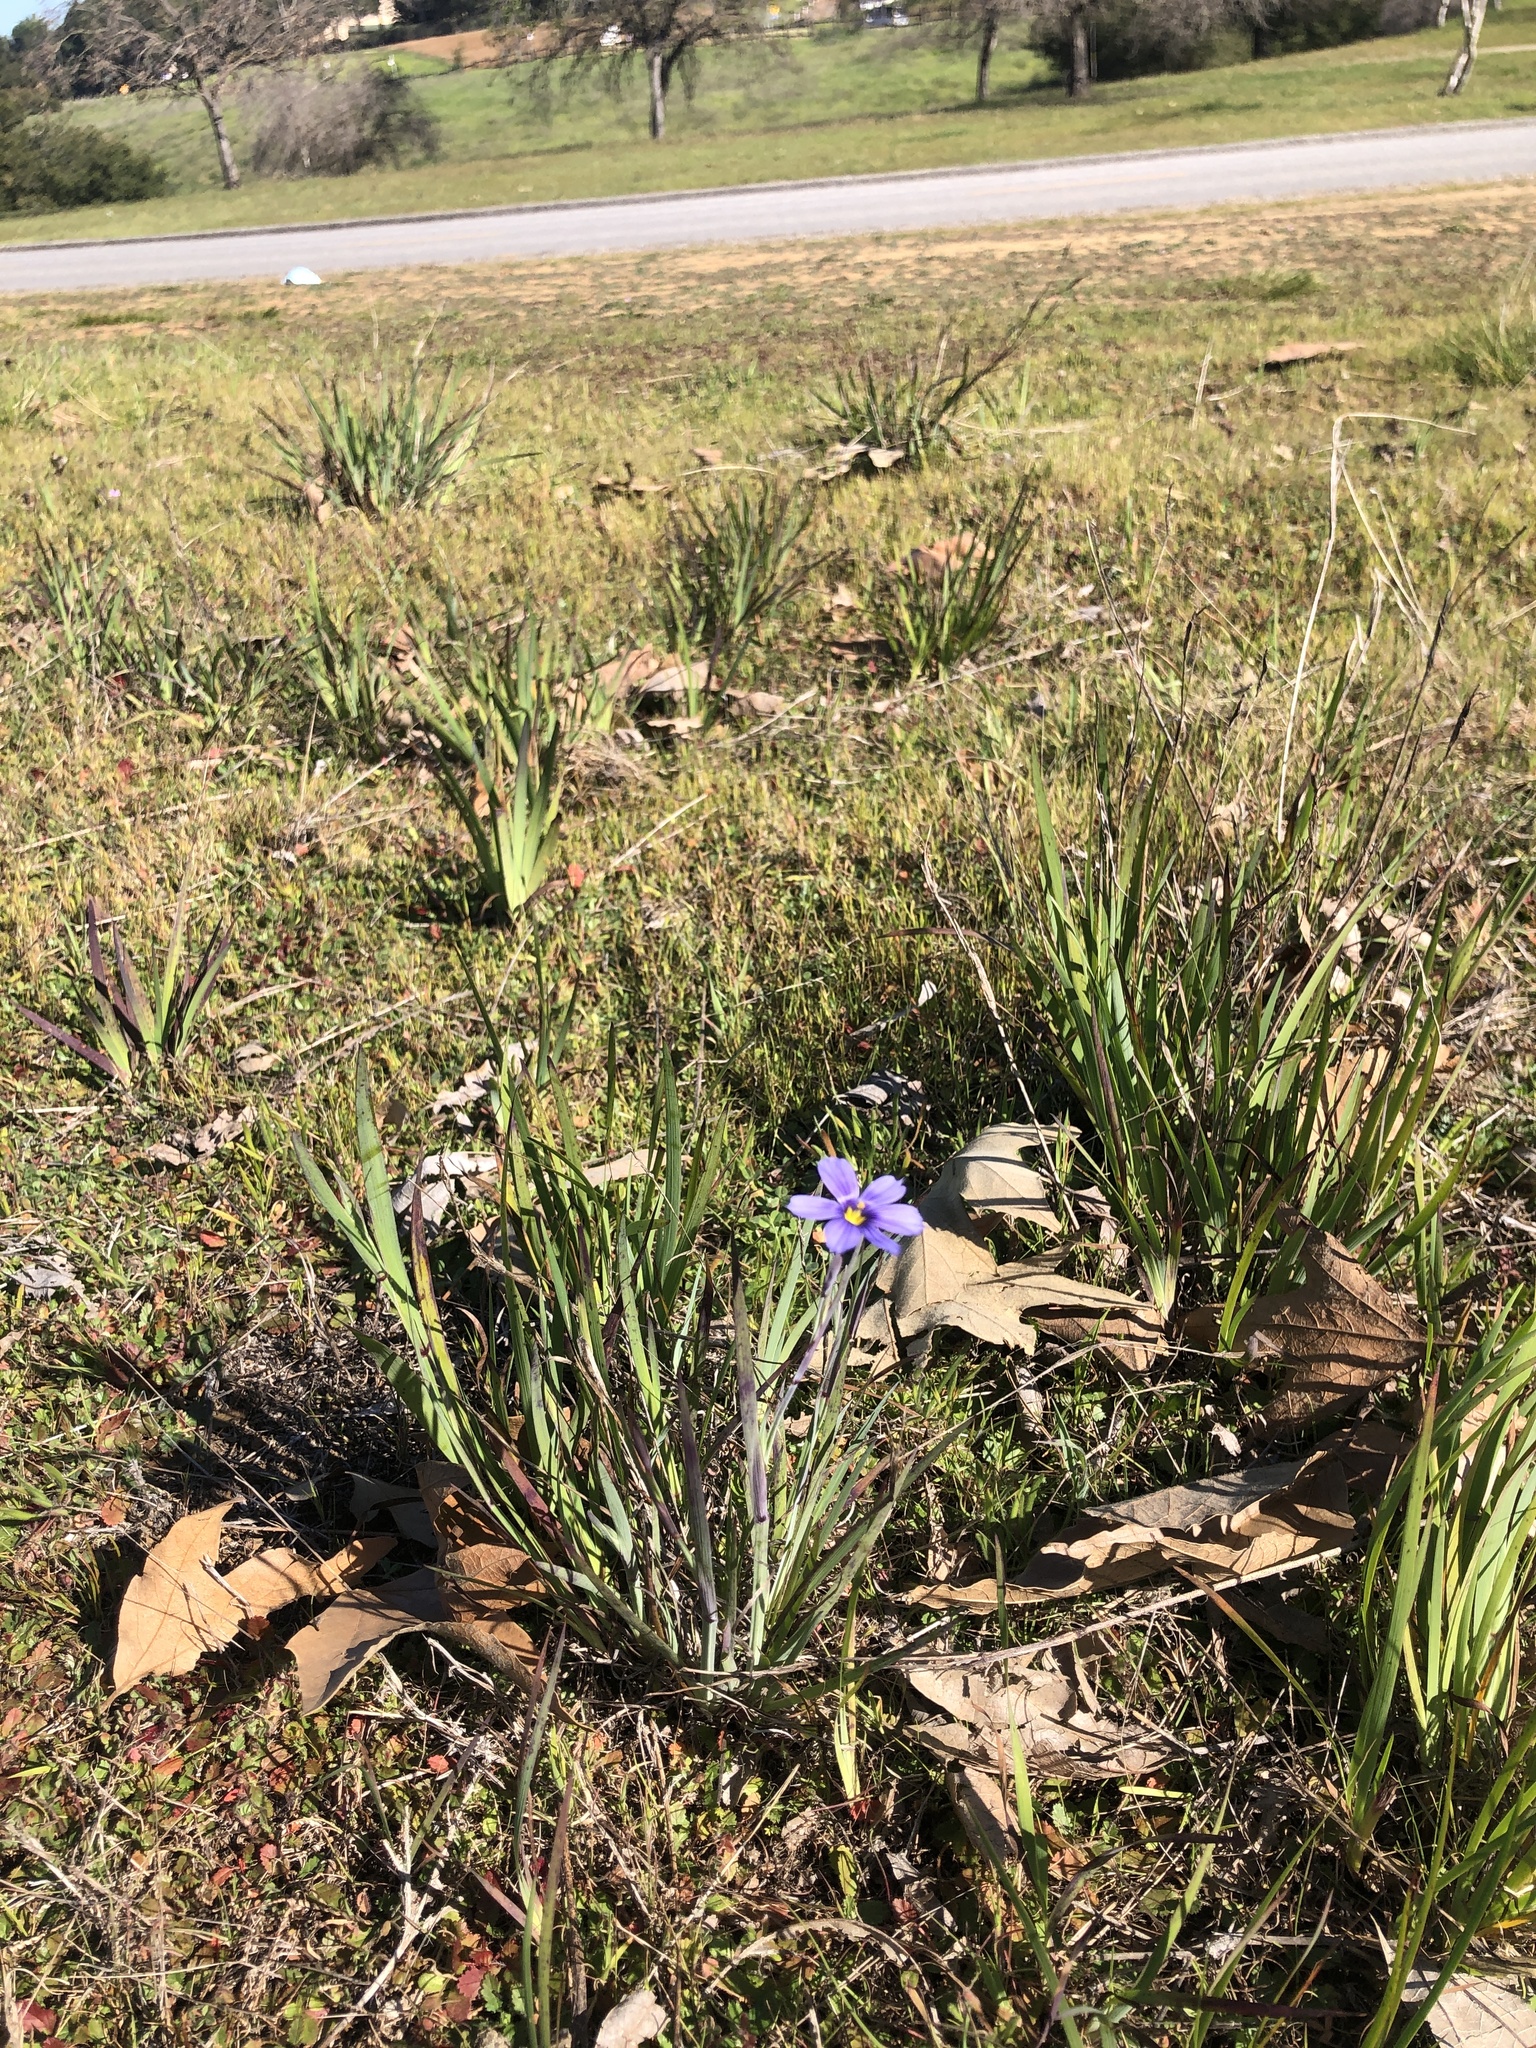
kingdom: Plantae
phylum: Tracheophyta
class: Liliopsida
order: Asparagales
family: Iridaceae
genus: Sisyrinchium
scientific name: Sisyrinchium bellum
